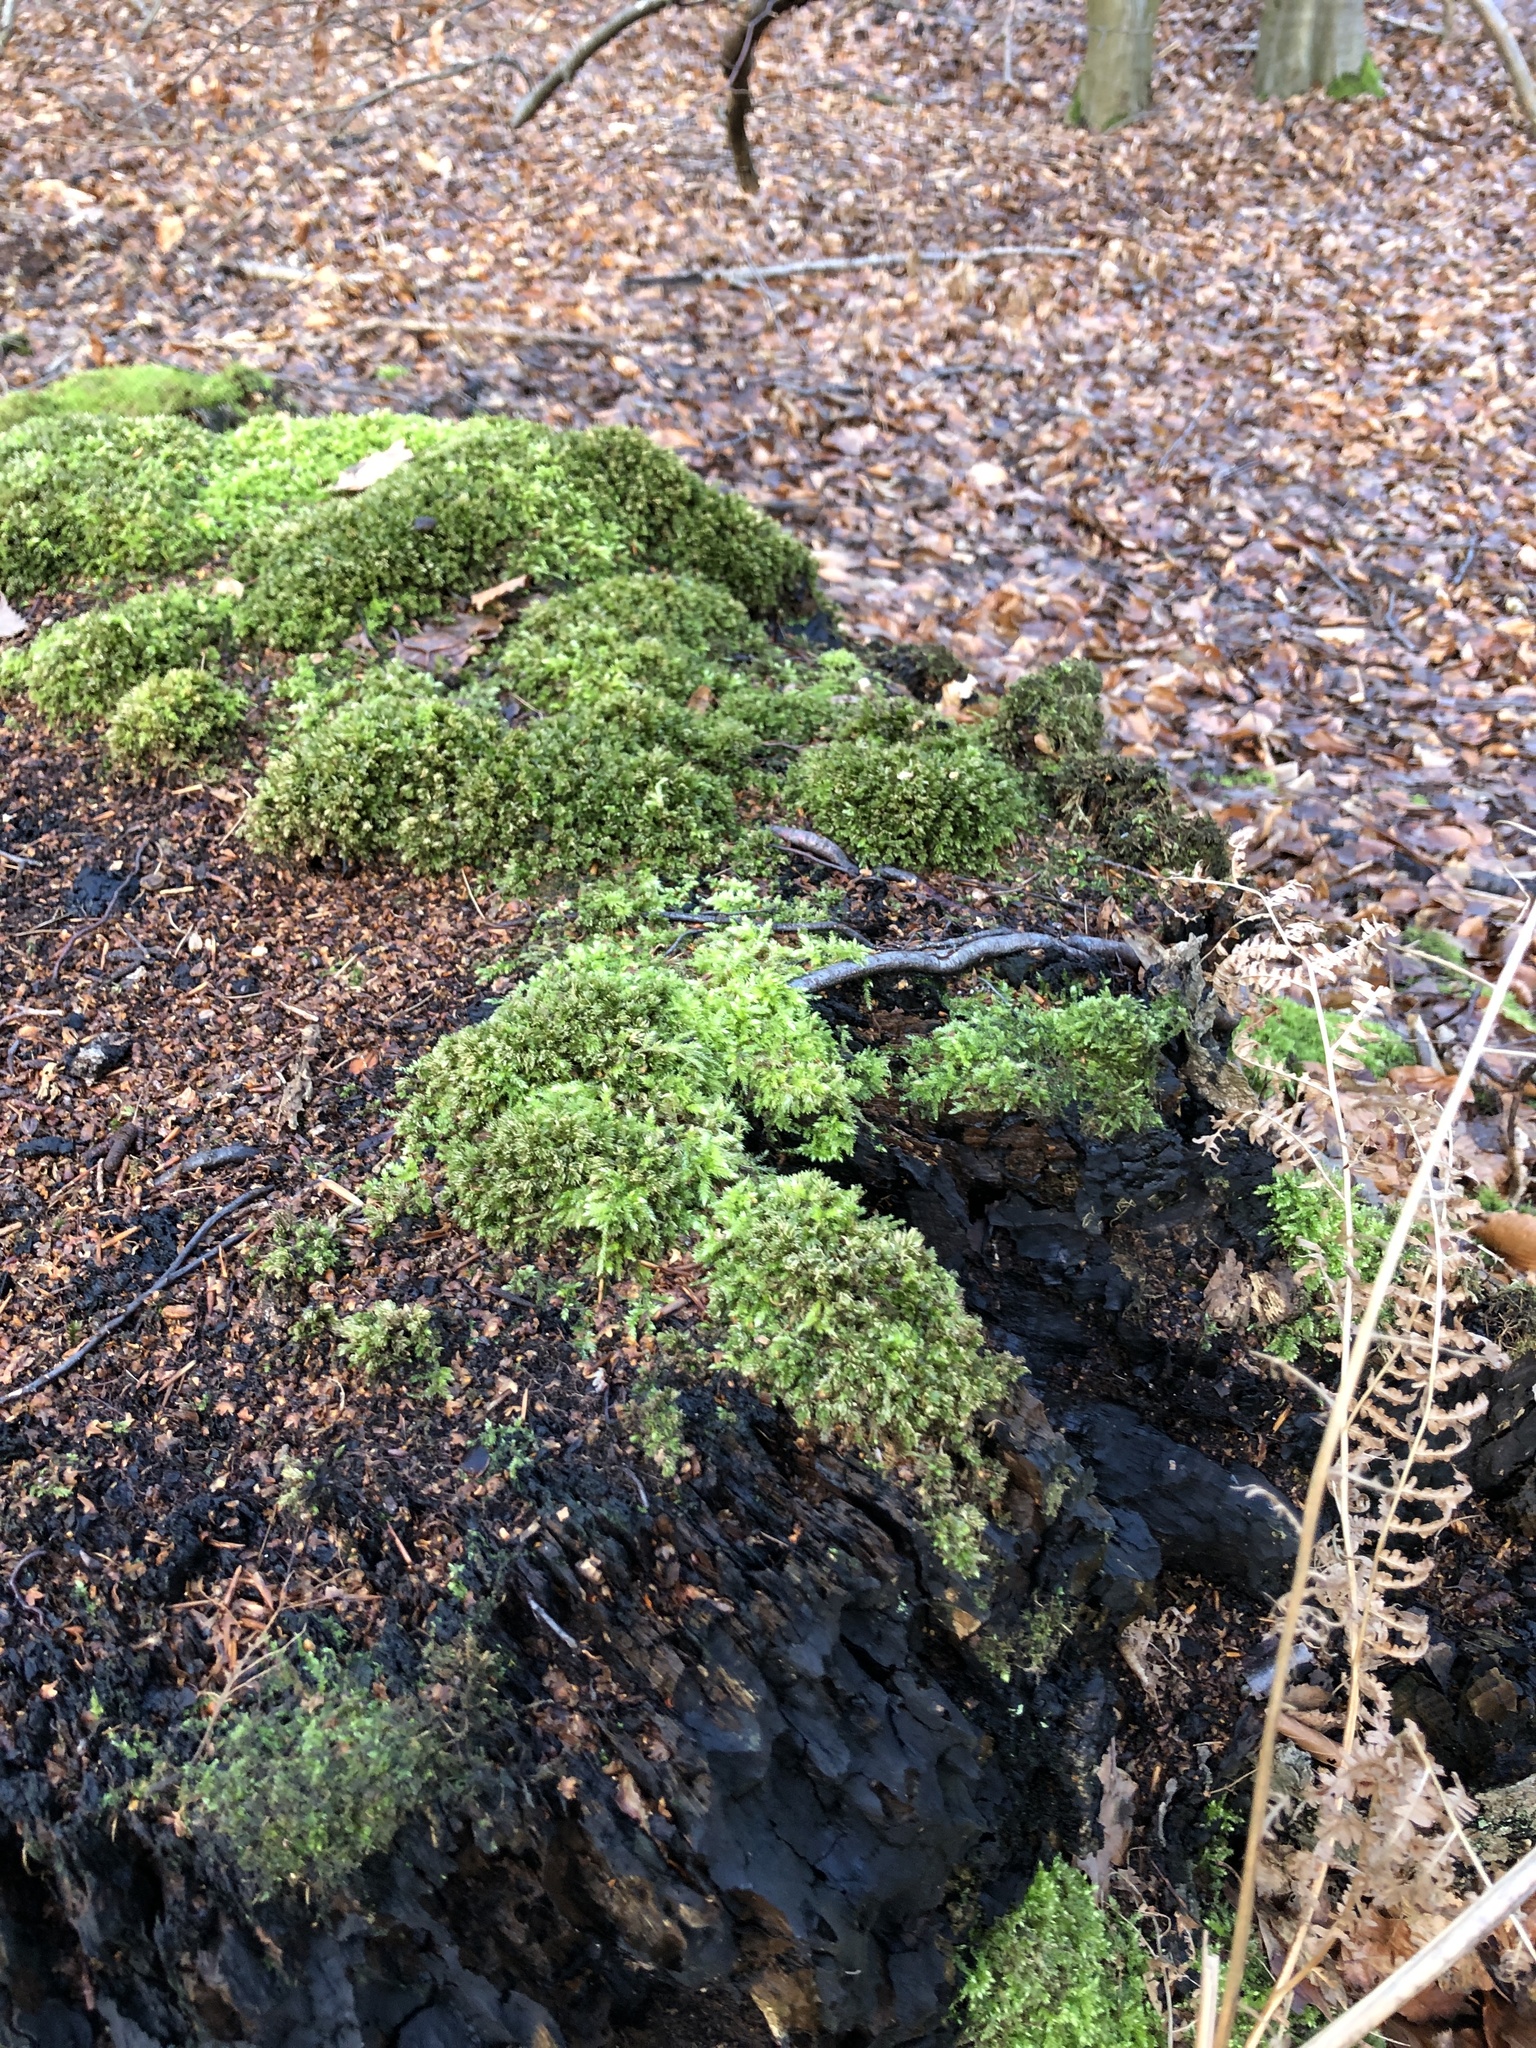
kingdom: Plantae
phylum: Bryophyta
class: Bryopsida
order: Hypnales
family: Brachytheciaceae
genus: Brachythecium
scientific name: Brachythecium rutabulum
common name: Rough-stalked feather-moss
